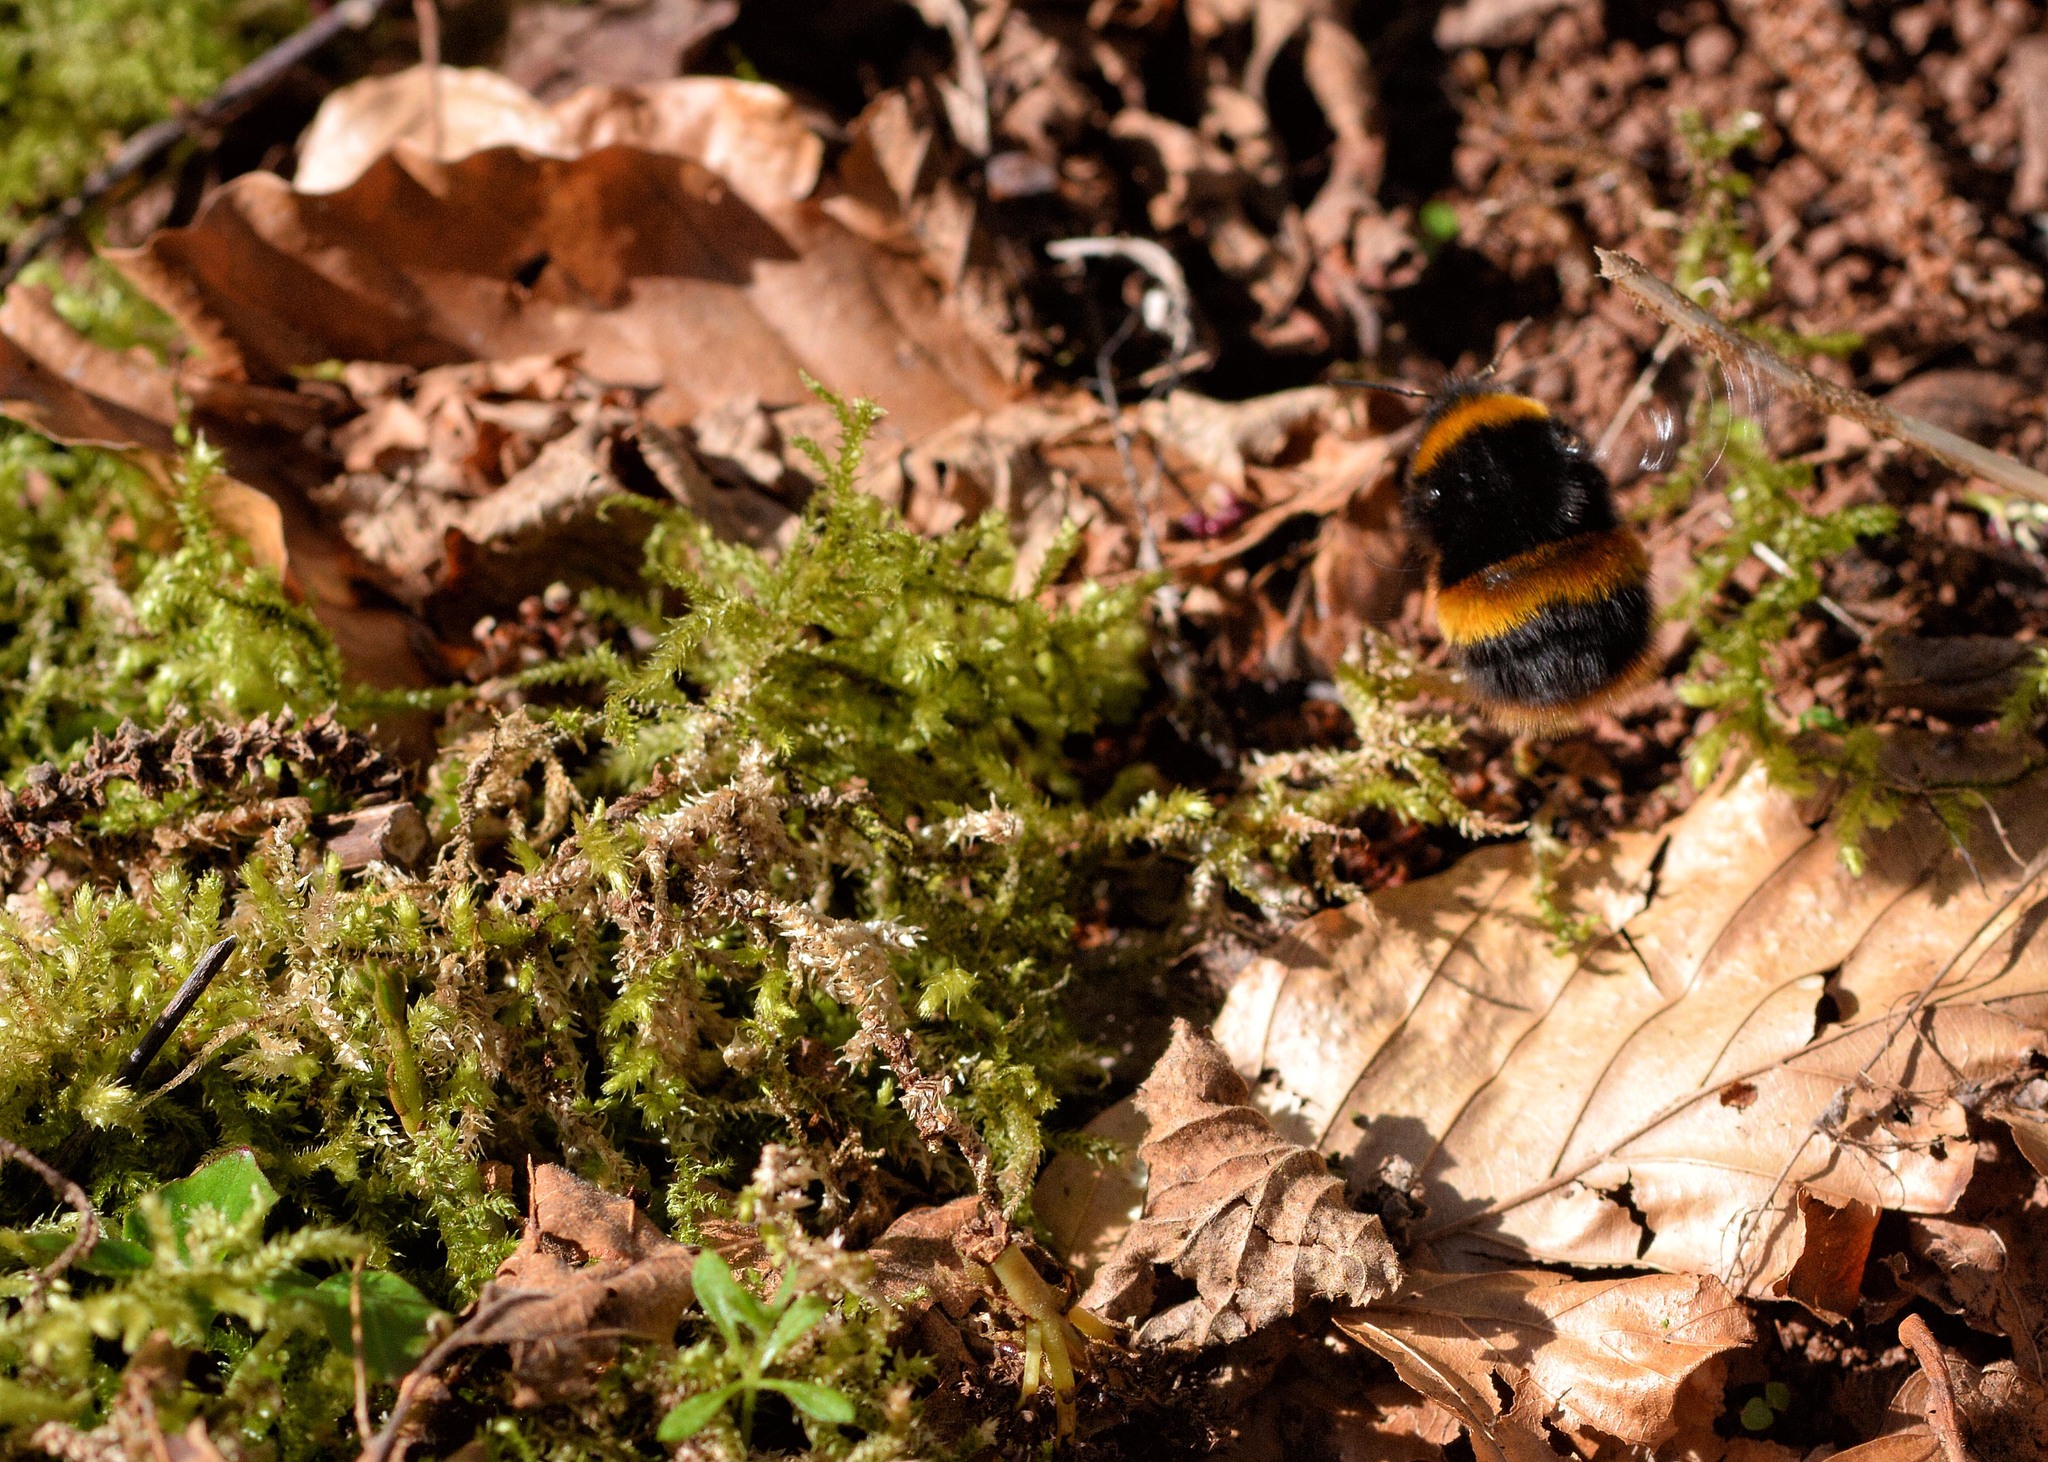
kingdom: Animalia
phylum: Arthropoda
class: Insecta
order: Hymenoptera
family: Apidae
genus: Bombus
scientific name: Bombus terrestris
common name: Buff-tailed bumblebee
